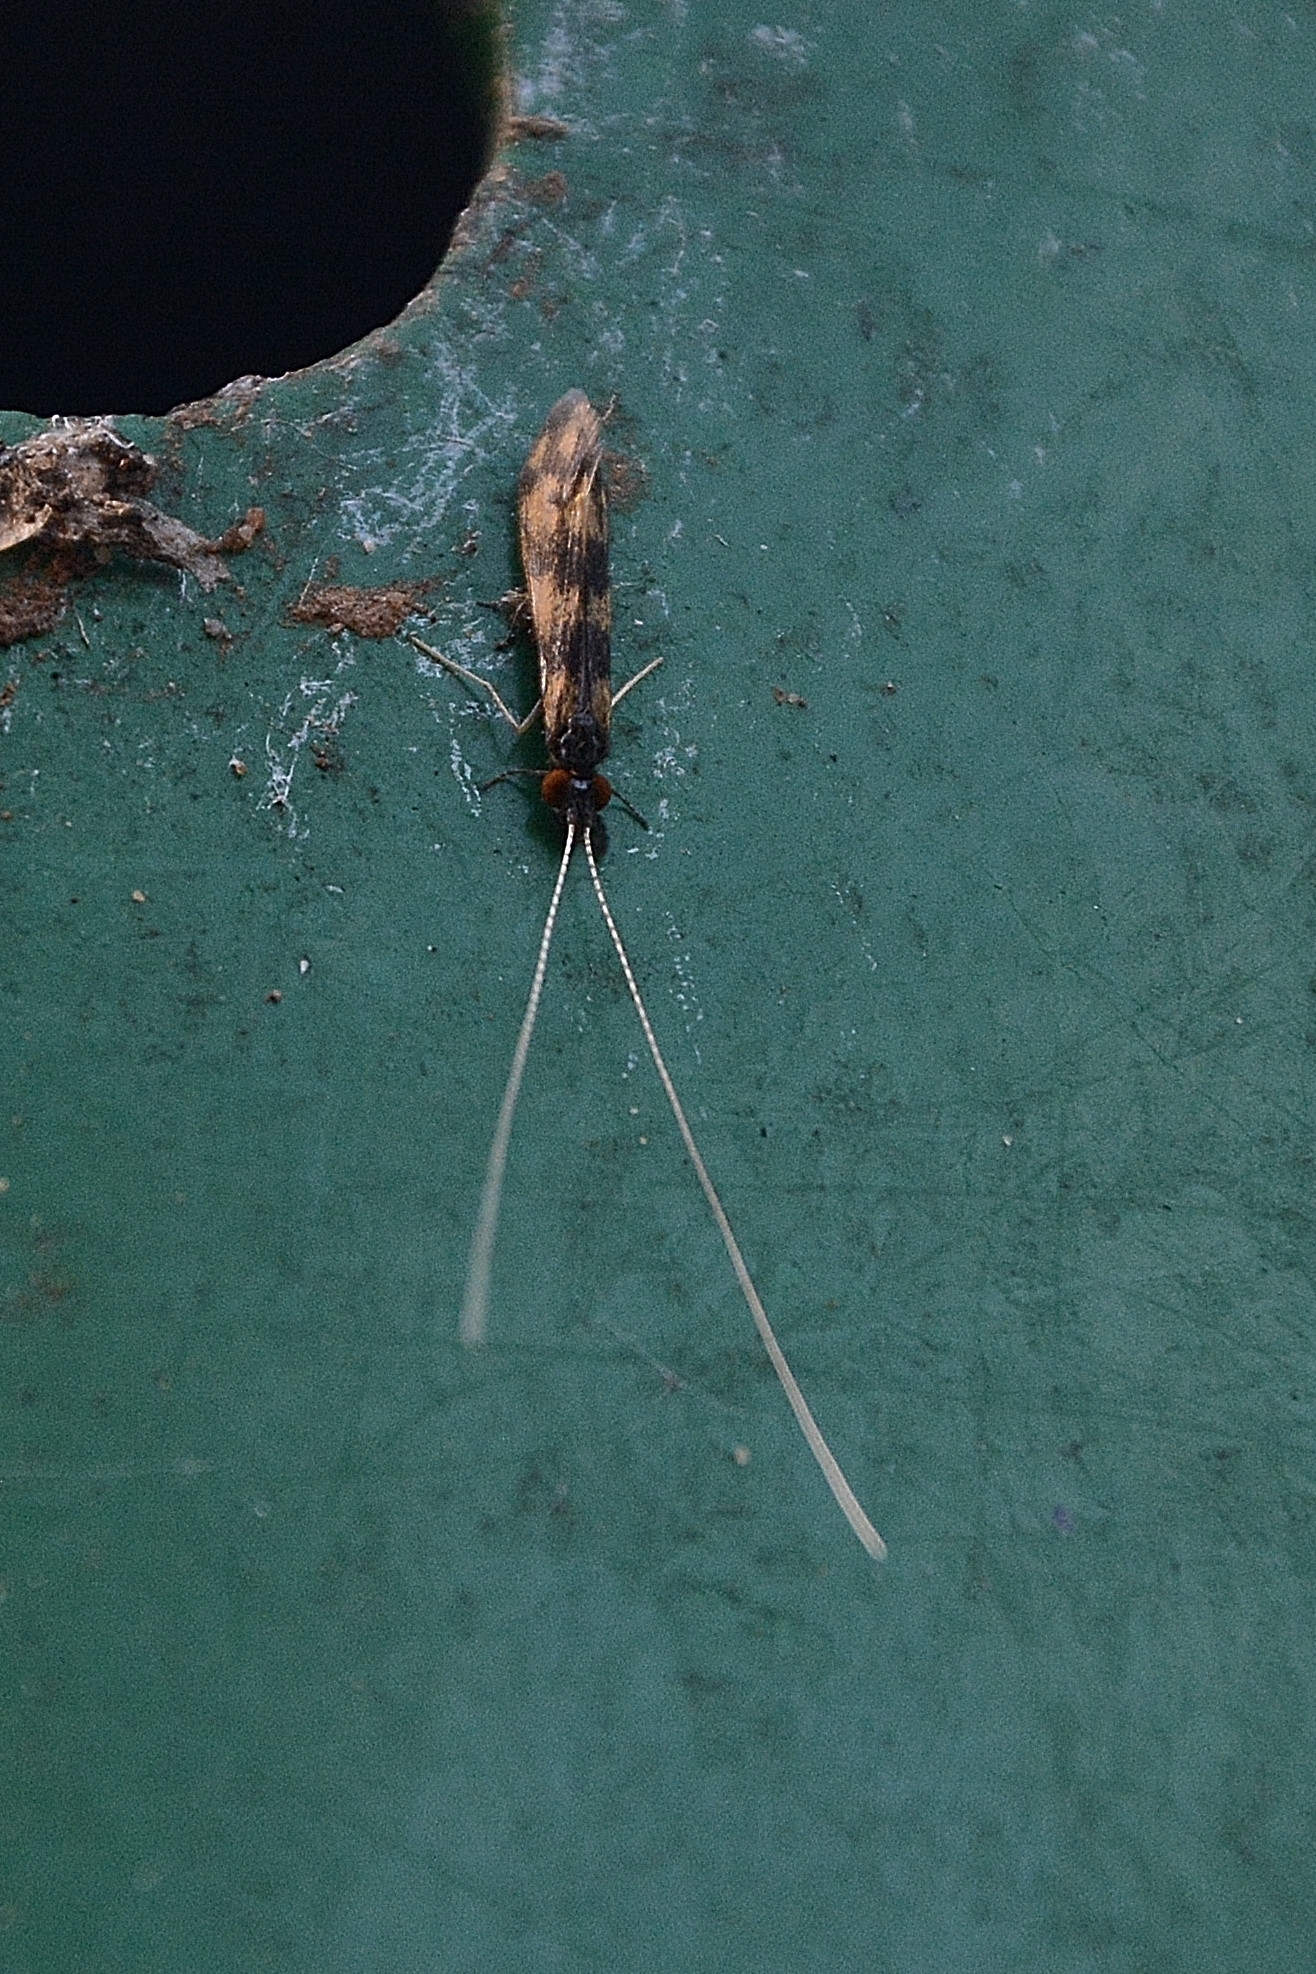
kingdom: Animalia
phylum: Arthropoda
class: Insecta
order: Trichoptera
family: Leptoceridae
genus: Mystacides
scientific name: Mystacides longicornis
